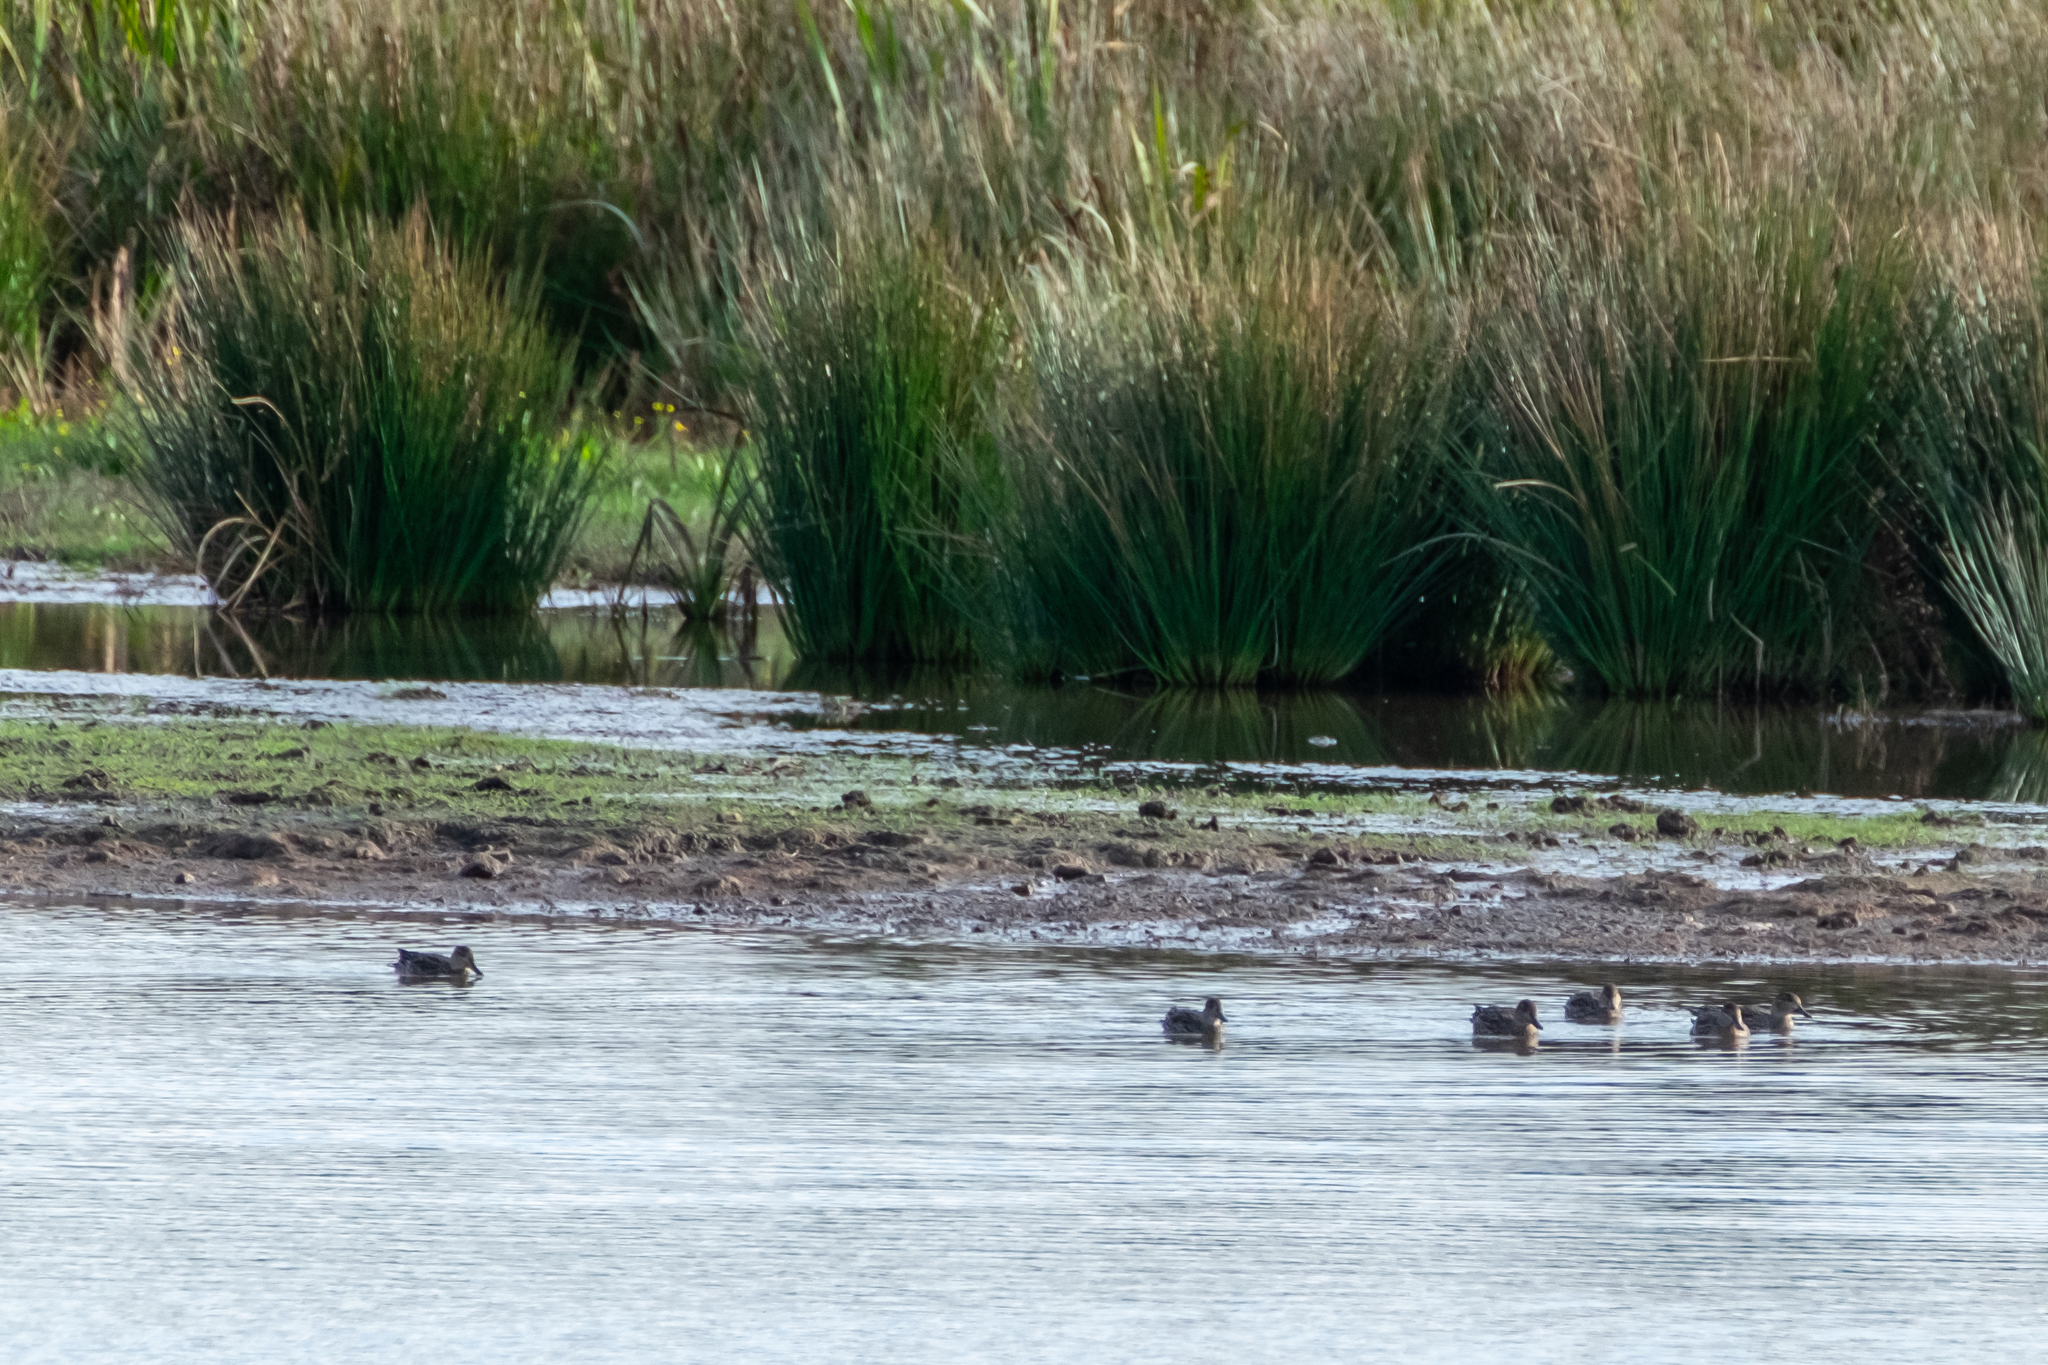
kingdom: Animalia
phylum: Chordata
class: Aves
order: Anseriformes
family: Anatidae
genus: Anas
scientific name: Anas crecca
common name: Eurasian teal
